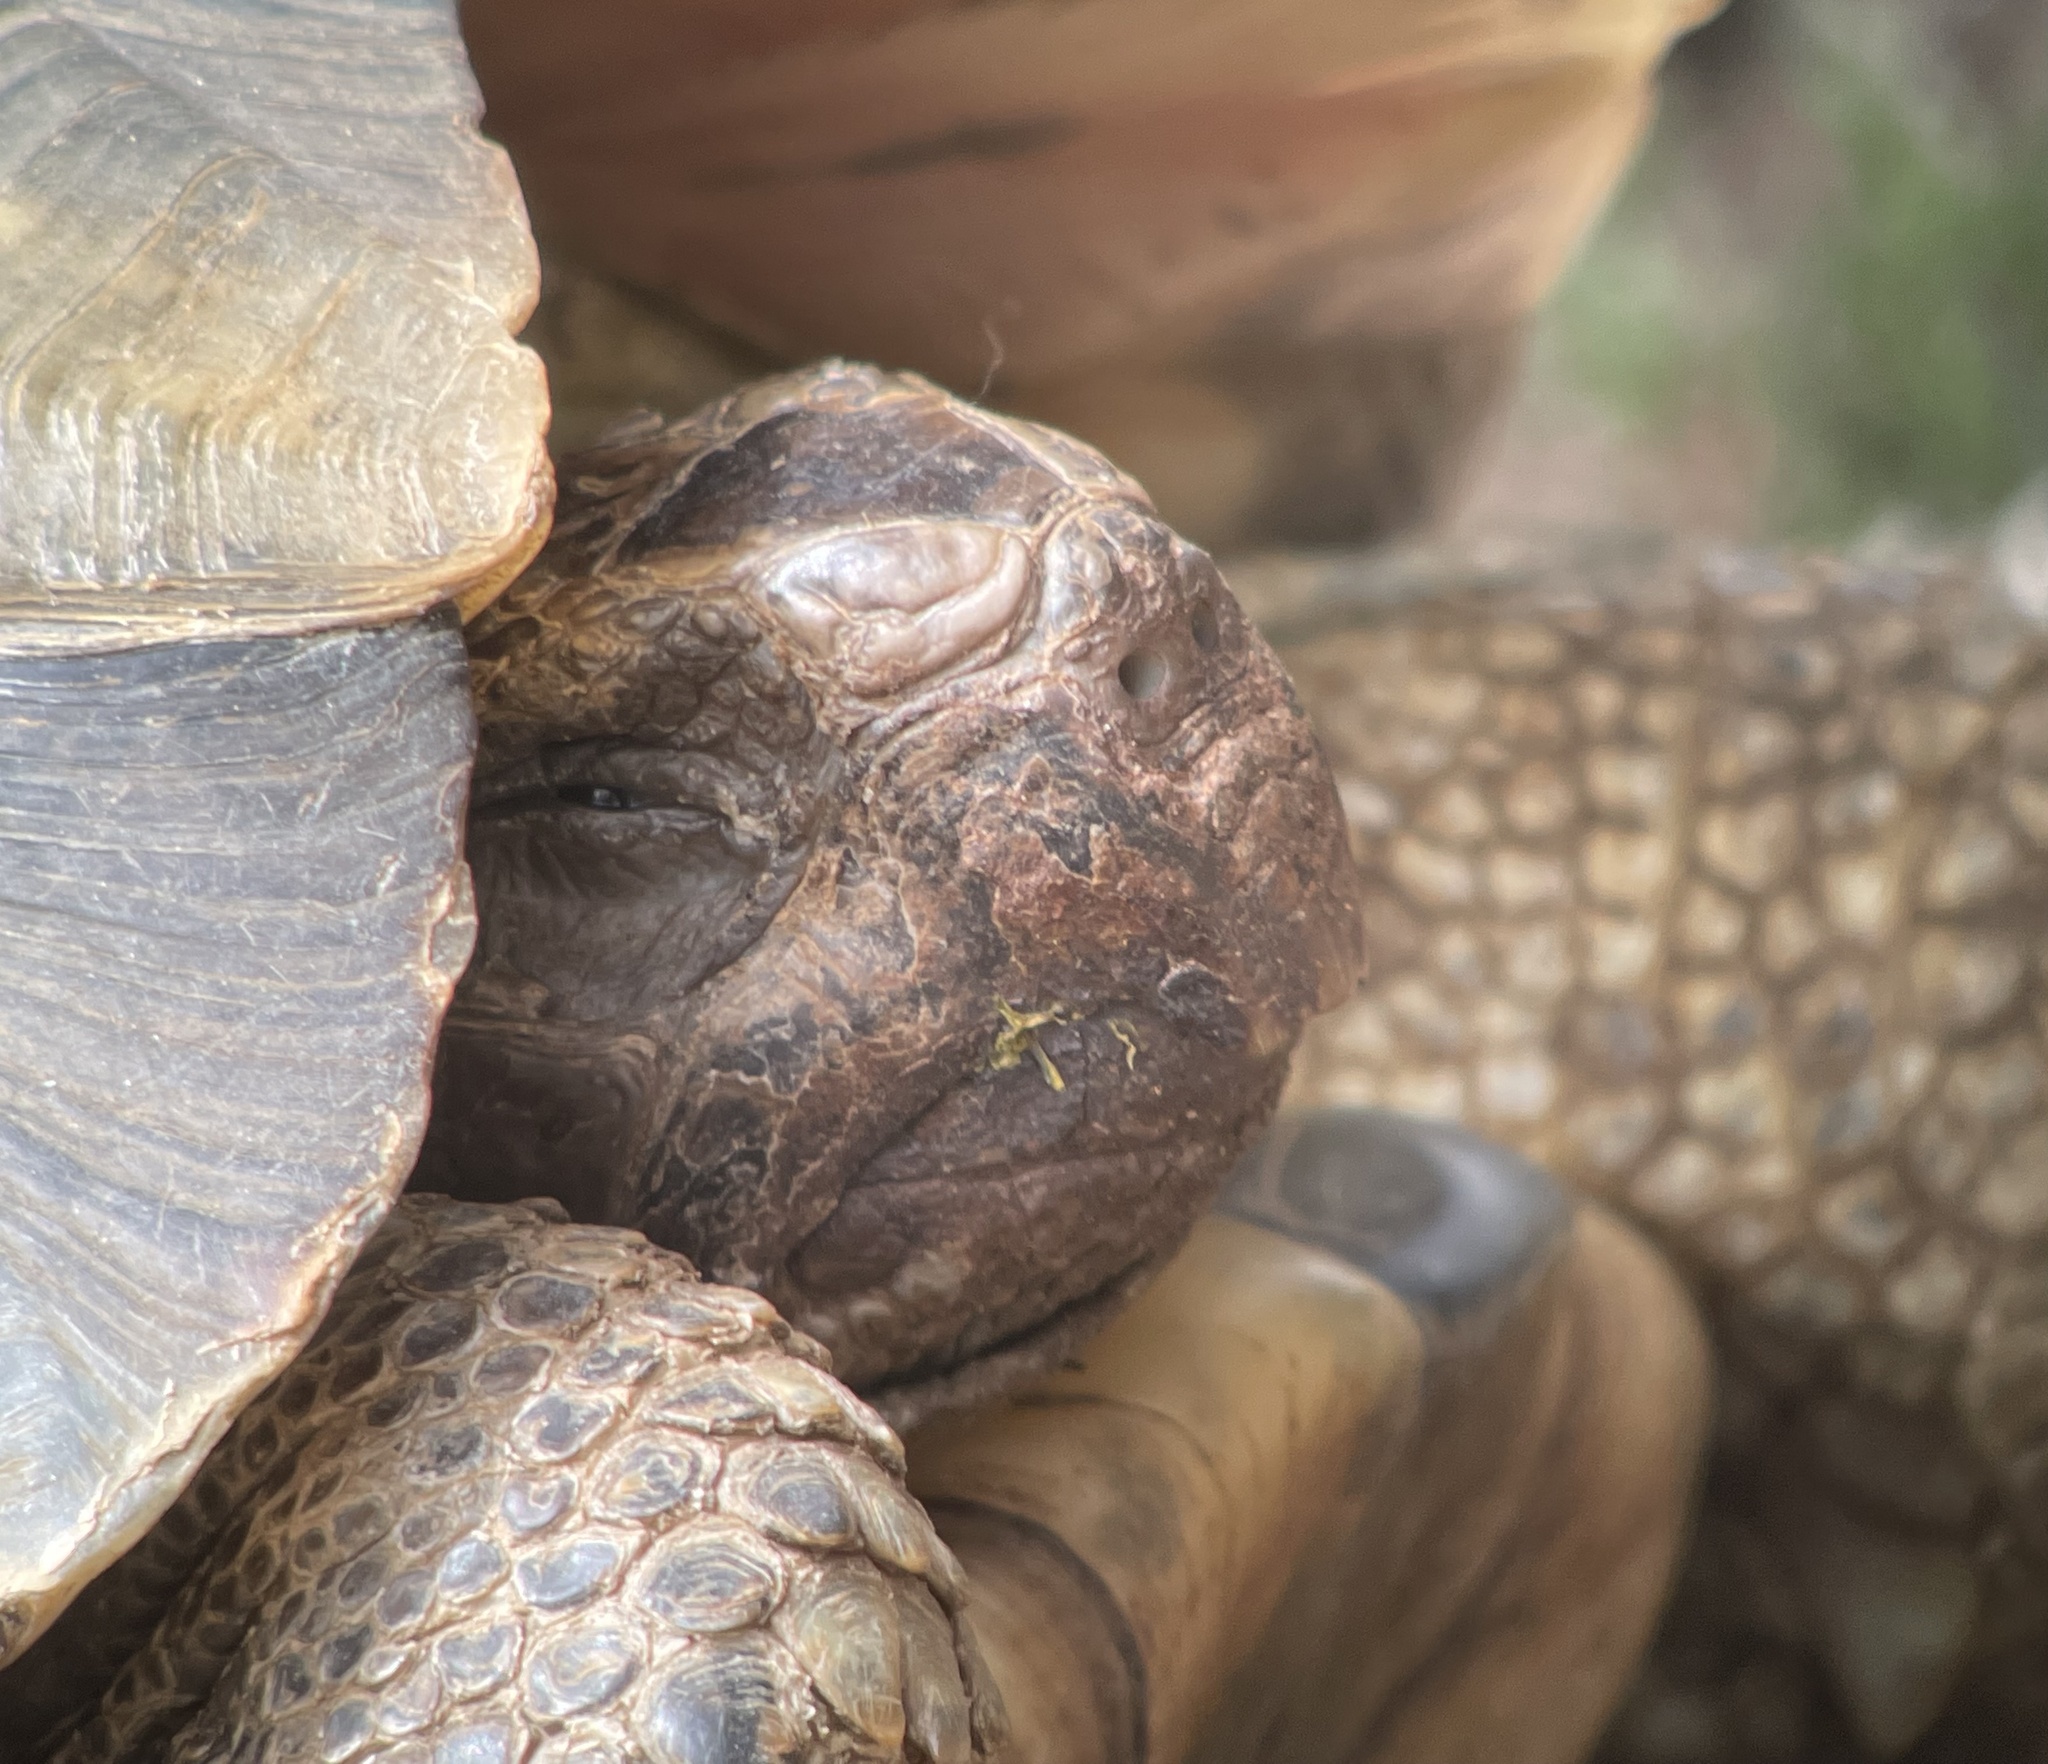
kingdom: Animalia
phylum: Chordata
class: Testudines
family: Testudinidae
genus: Testudo
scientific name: Testudo marginata
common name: Marginated tortoise
